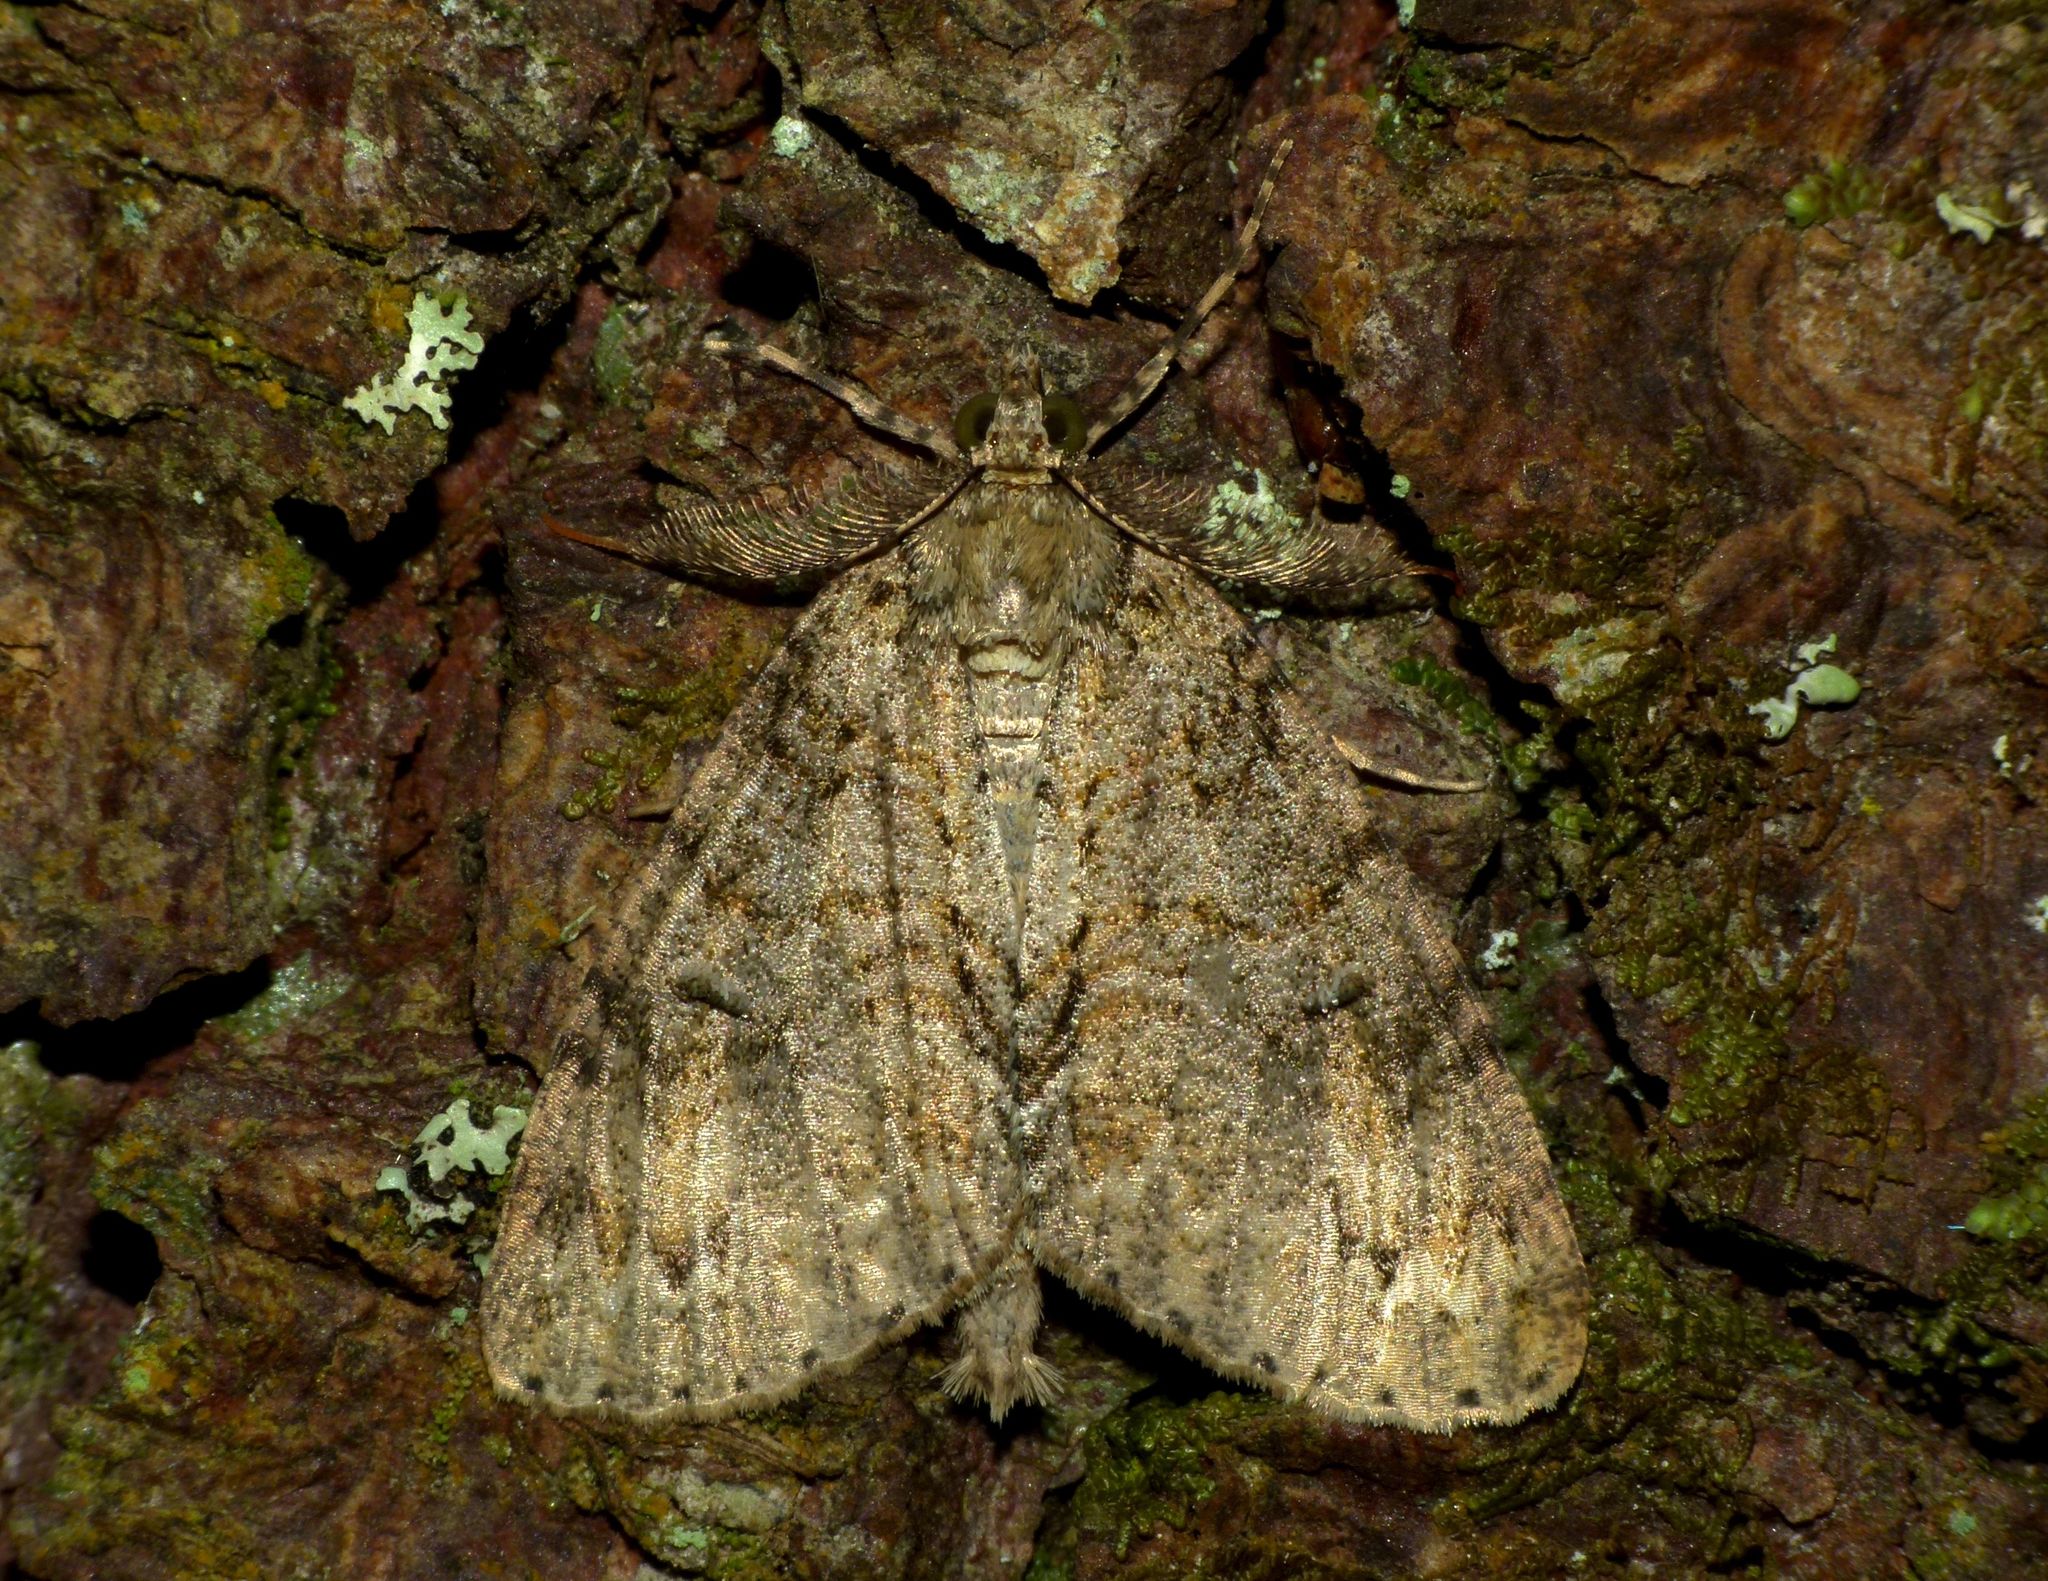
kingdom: Animalia
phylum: Arthropoda
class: Insecta
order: Lepidoptera
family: Geometridae
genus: Pseudocoremia
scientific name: Pseudocoremia suavis
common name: Common forest looper
